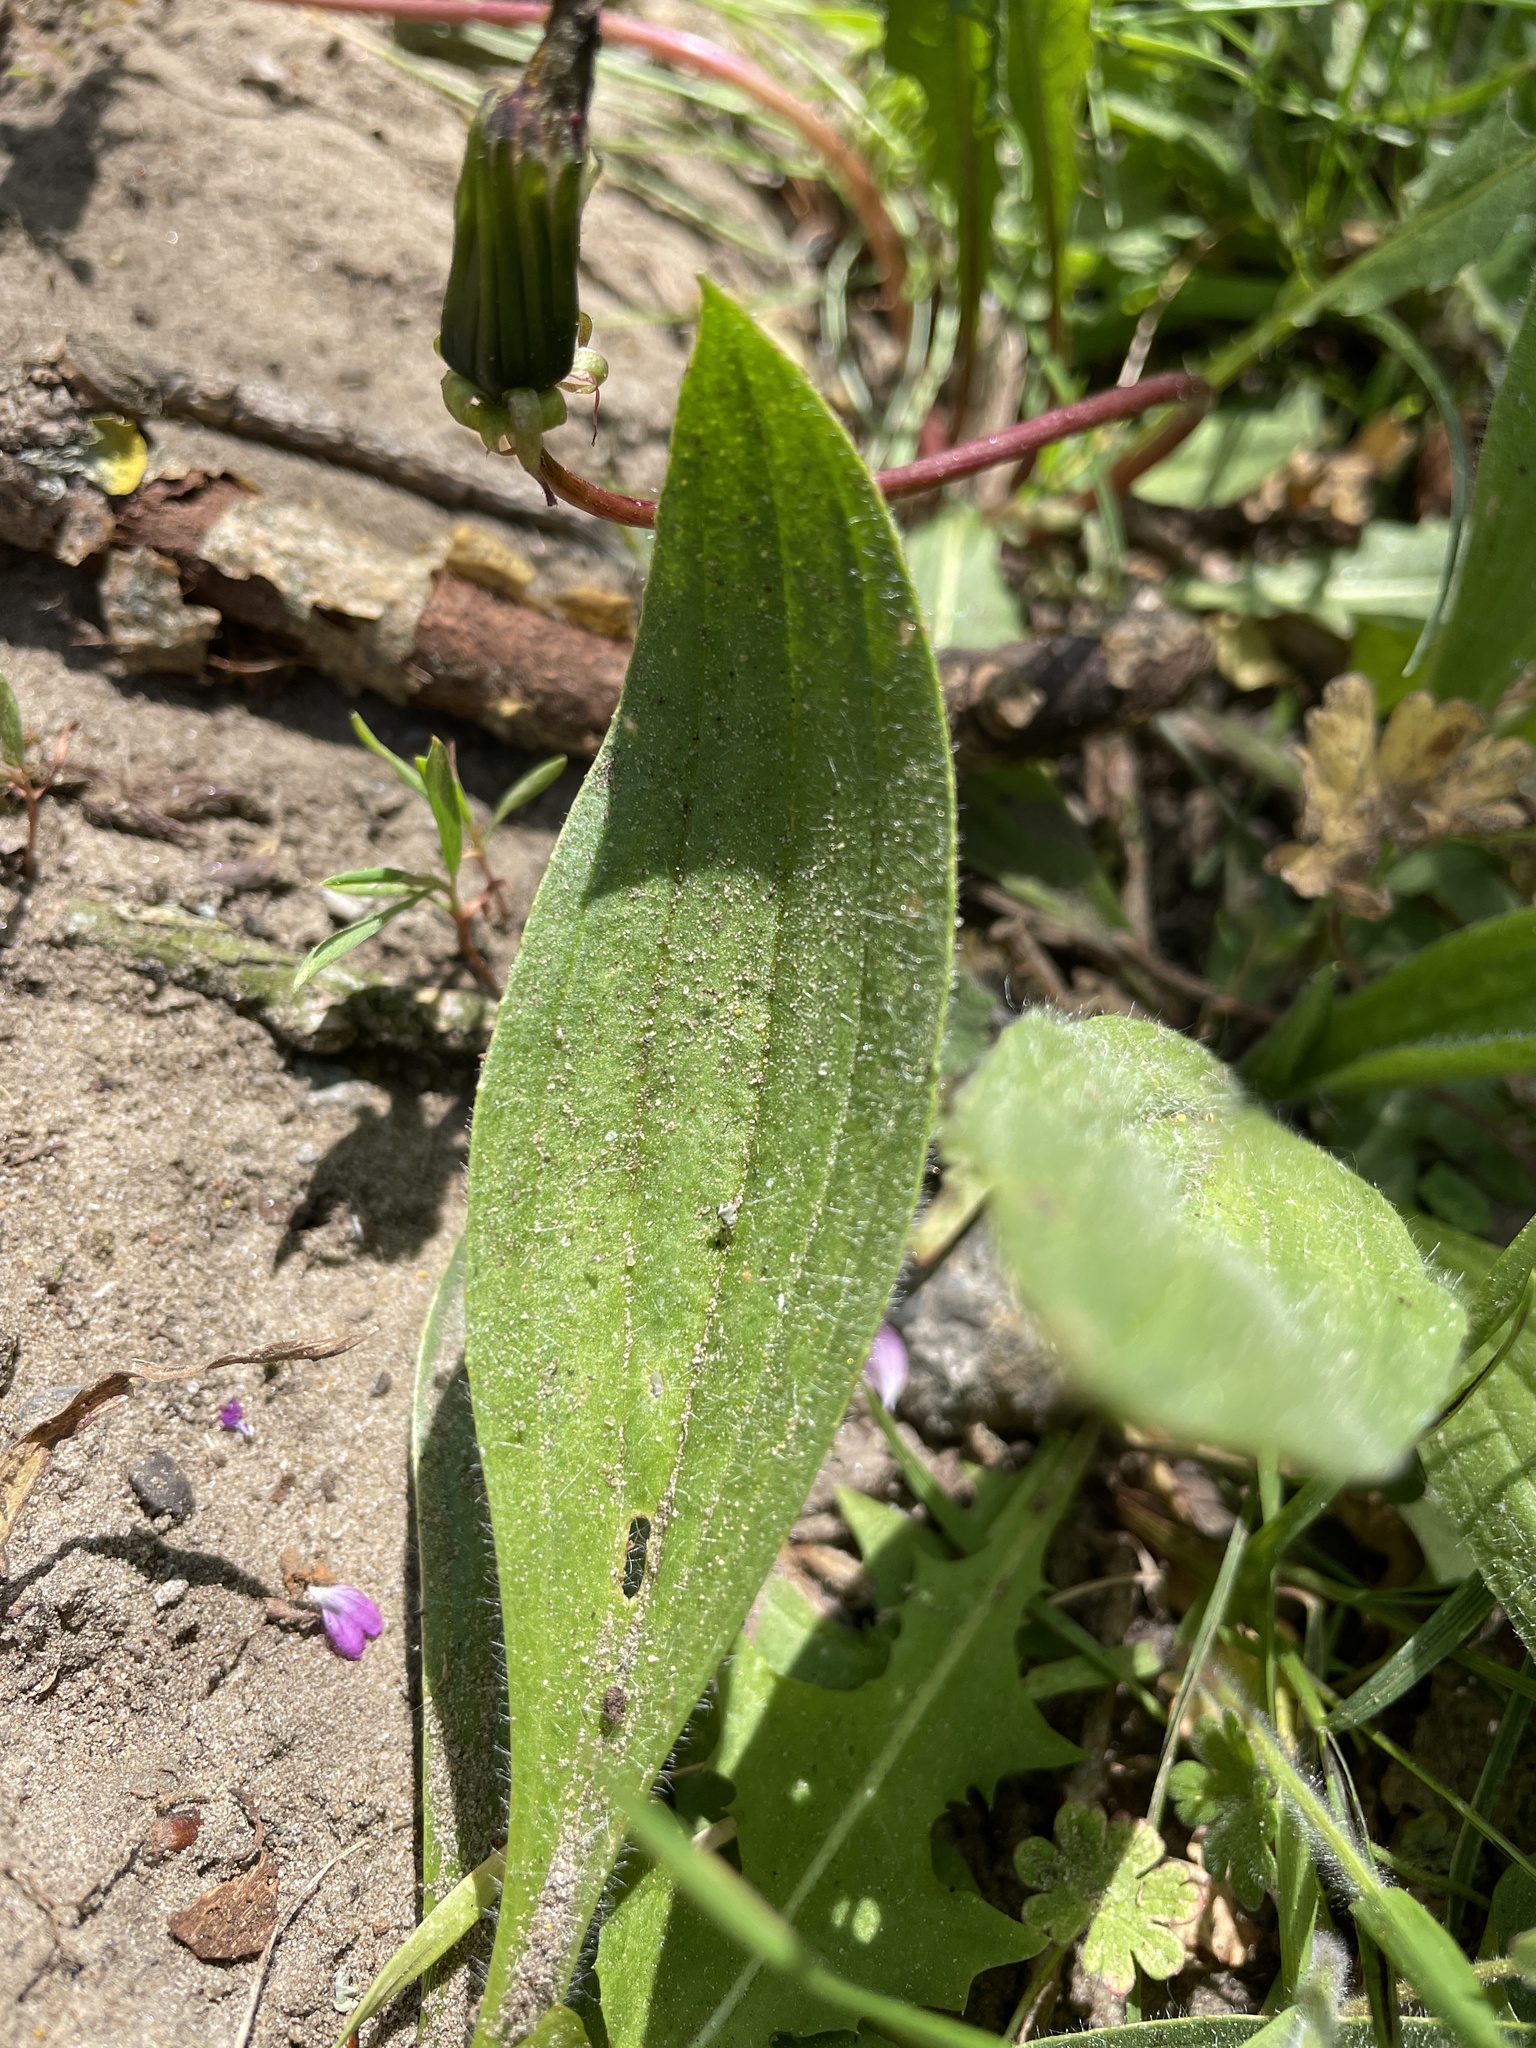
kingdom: Plantae
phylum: Tracheophyta
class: Magnoliopsida
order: Lamiales
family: Plantaginaceae
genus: Plantago
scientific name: Plantago lanceolata
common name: Ribwort plantain
